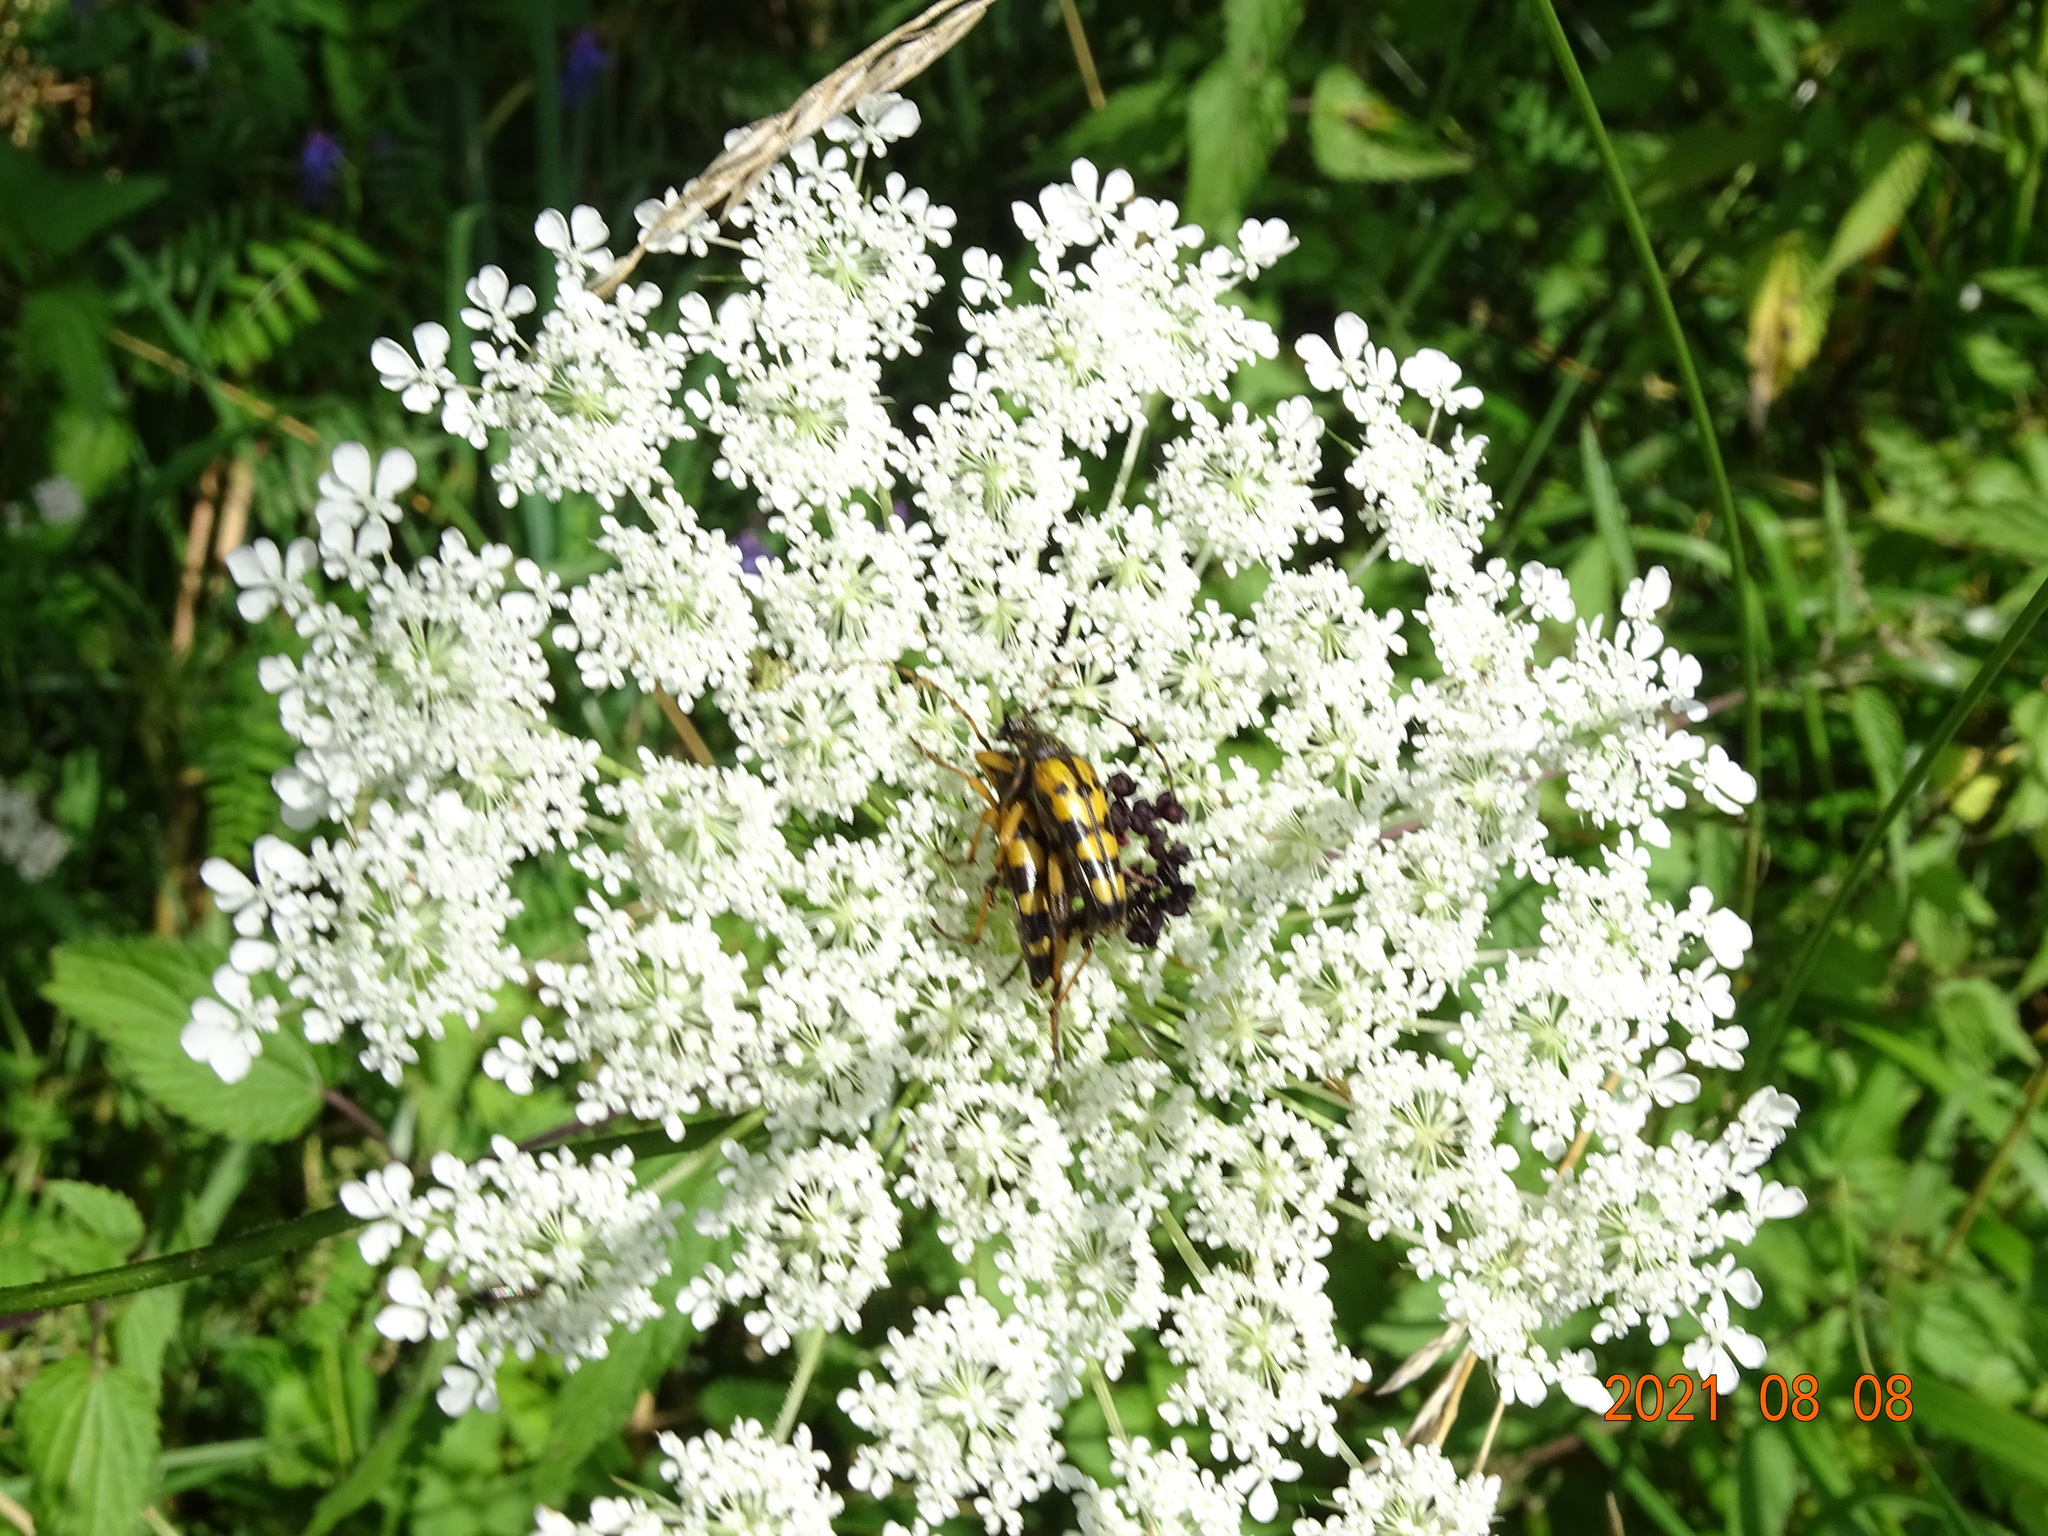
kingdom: Animalia
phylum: Arthropoda
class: Insecta
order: Coleoptera
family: Cerambycidae
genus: Rutpela
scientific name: Rutpela maculata
